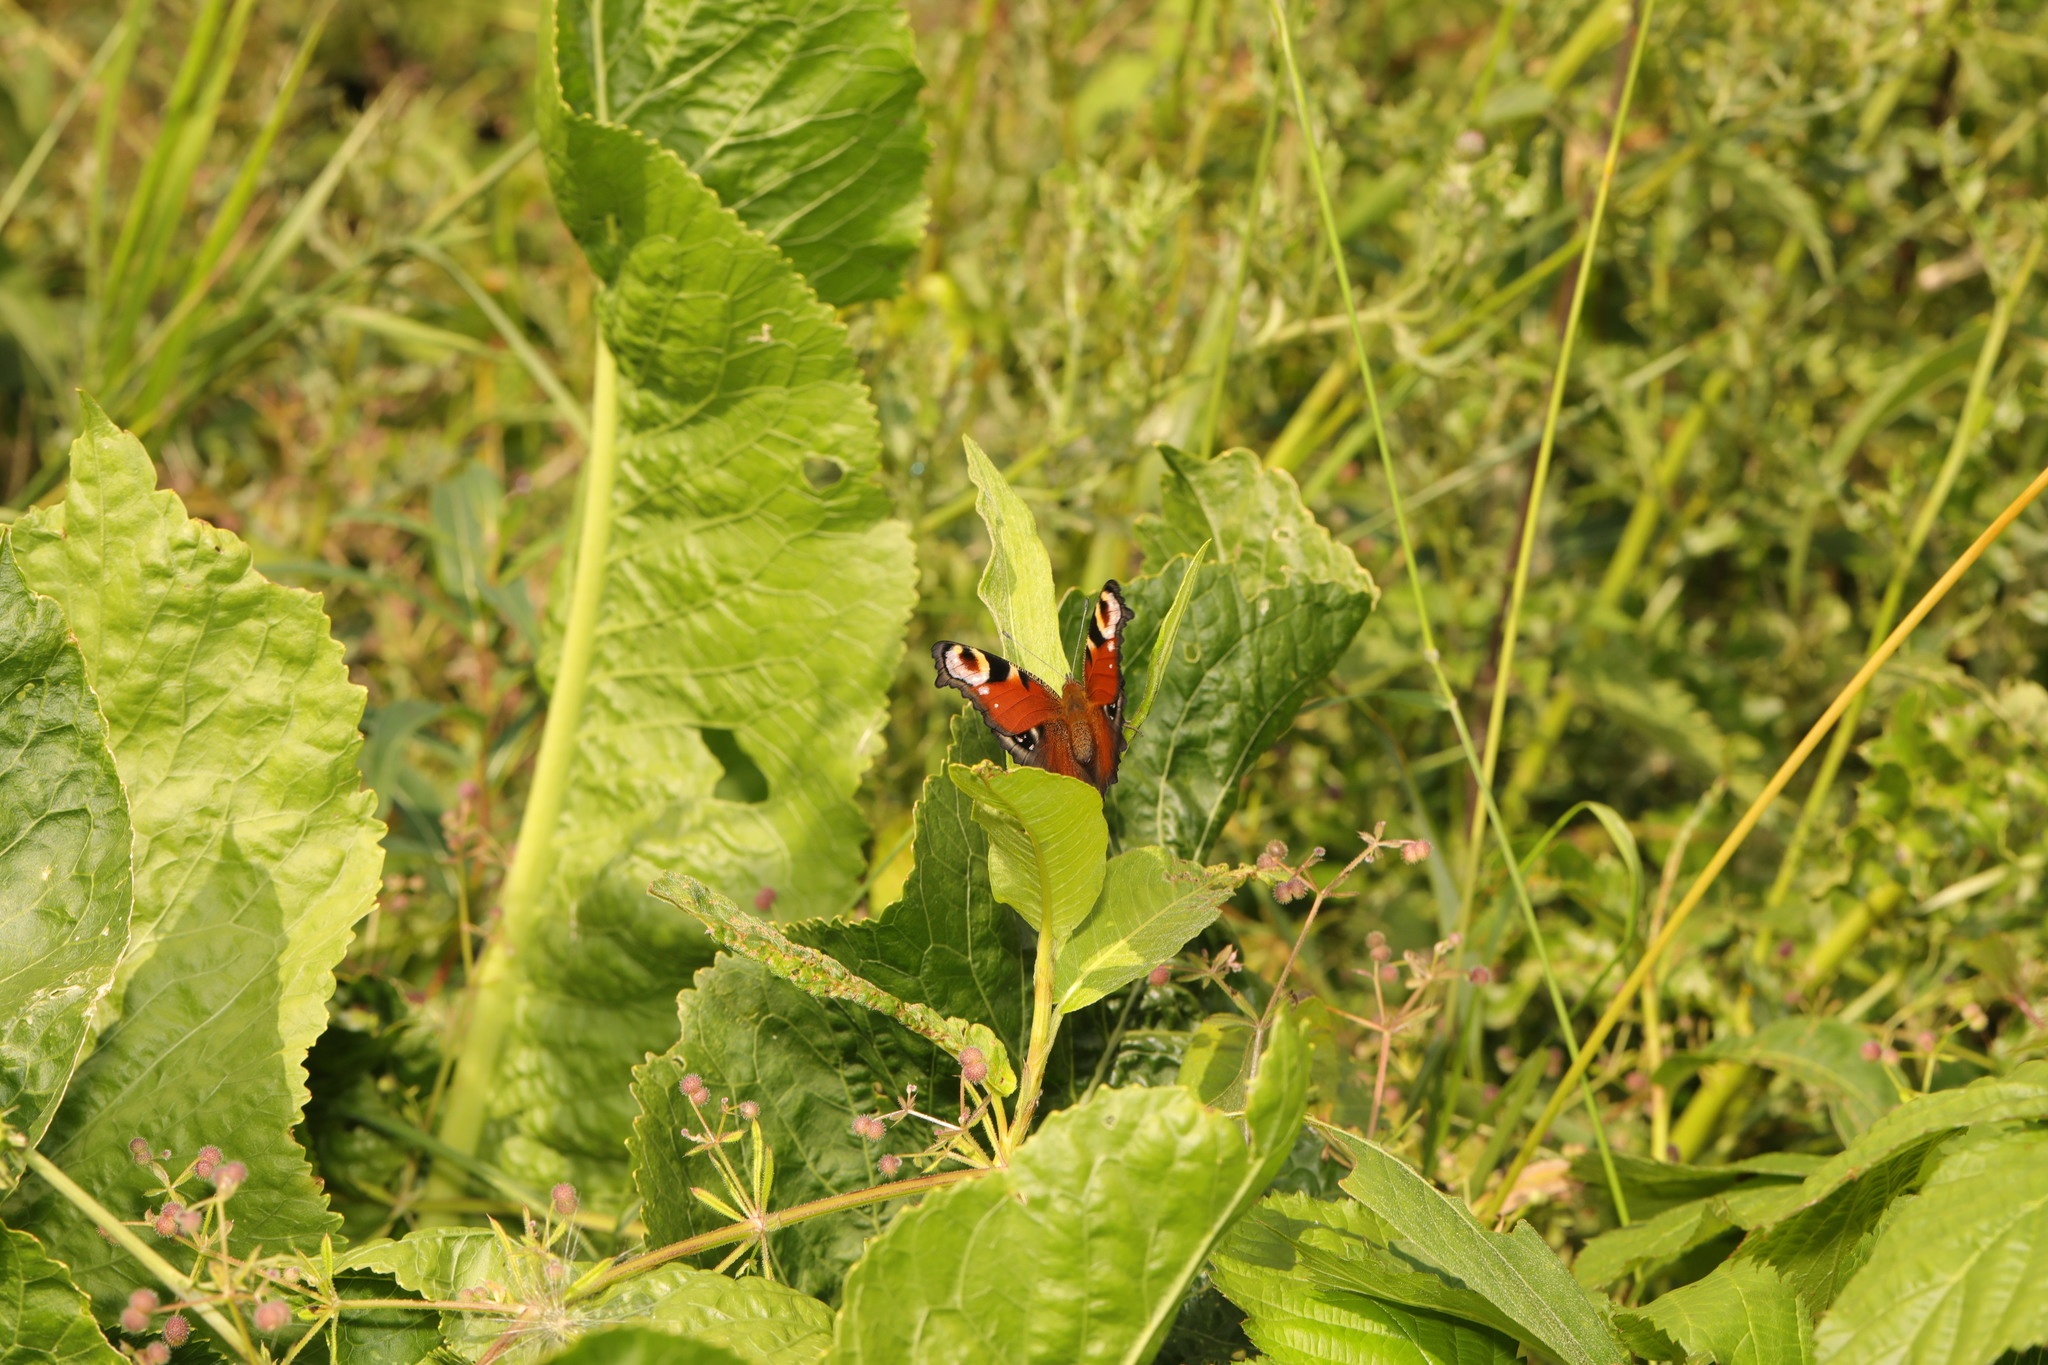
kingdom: Animalia
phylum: Arthropoda
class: Insecta
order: Lepidoptera
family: Nymphalidae
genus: Aglais
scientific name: Aglais io
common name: Peacock
